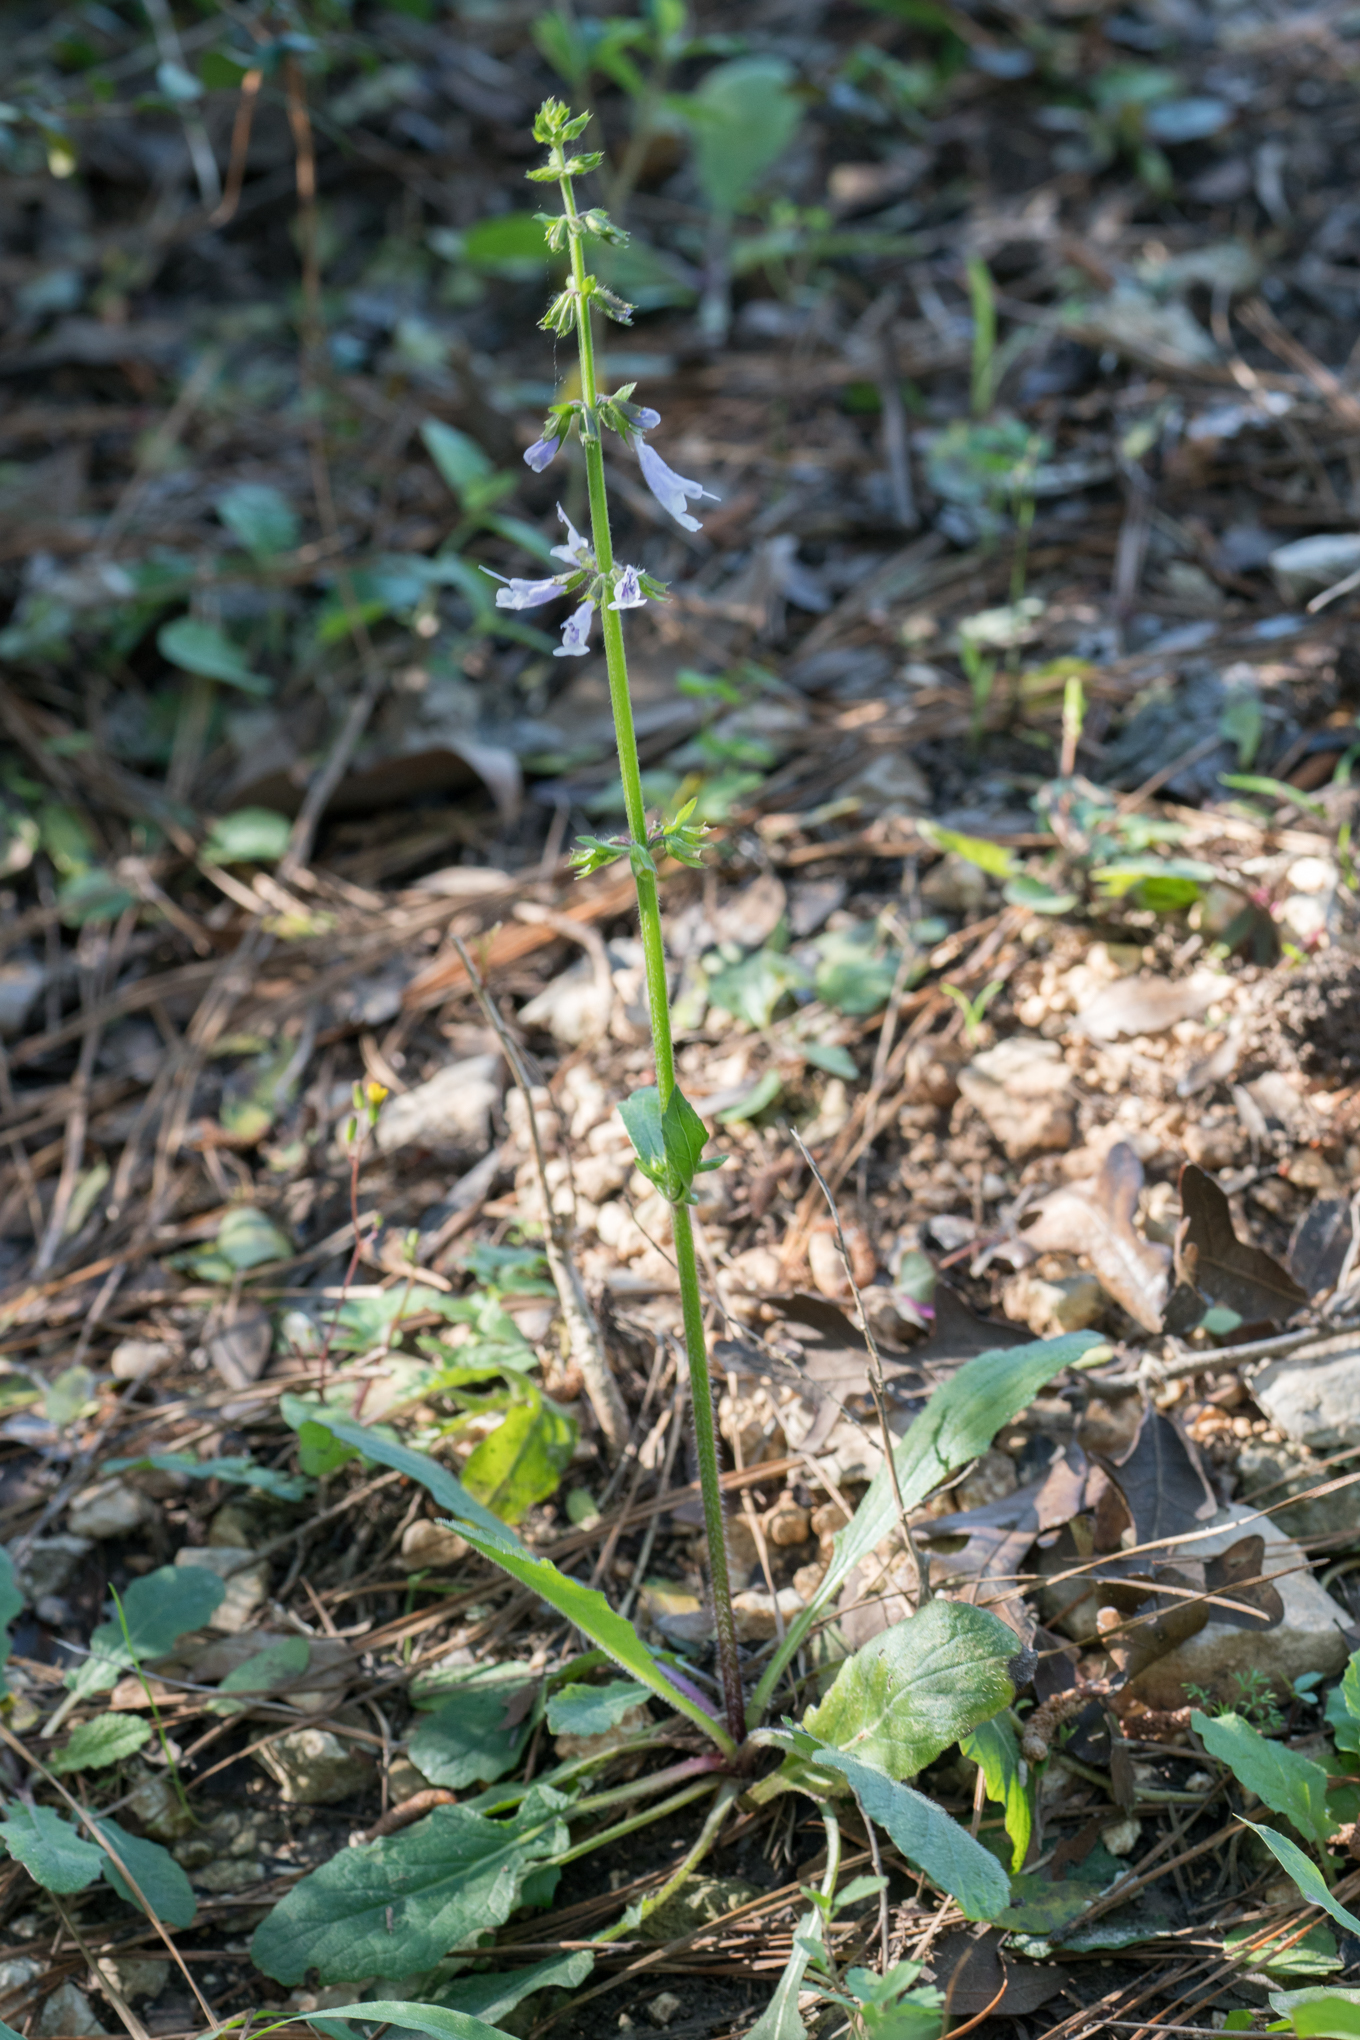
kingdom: Plantae
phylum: Tracheophyta
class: Magnoliopsida
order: Lamiales
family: Lamiaceae
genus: Salvia
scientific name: Salvia lyrata
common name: Cancerweed
